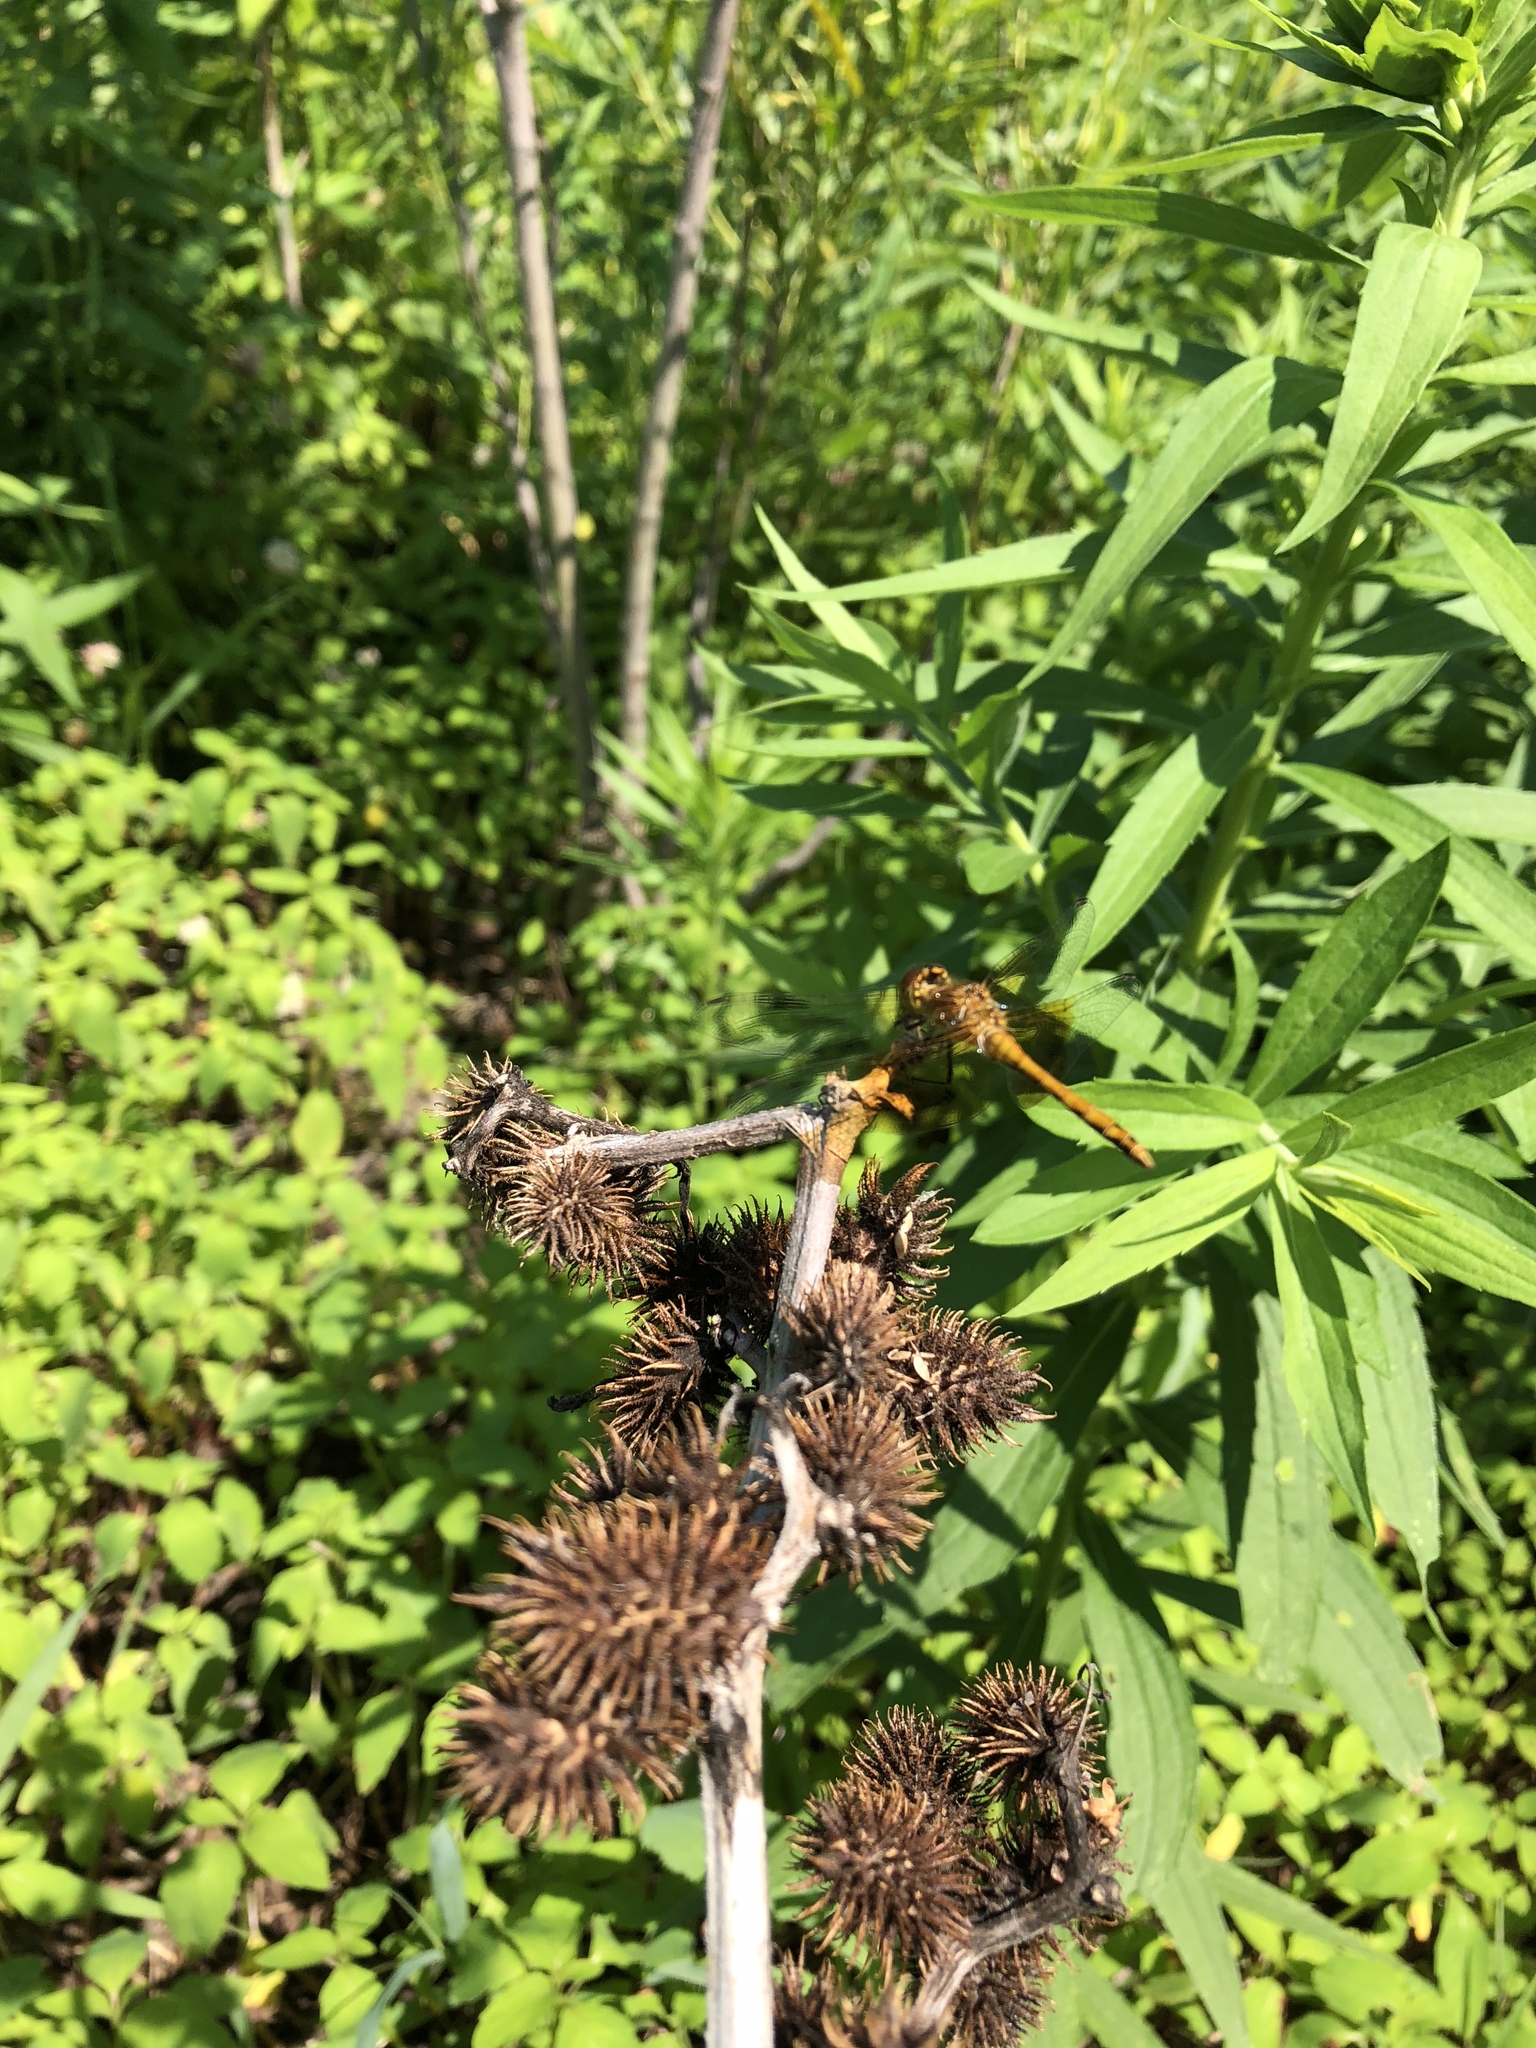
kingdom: Animalia
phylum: Arthropoda
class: Insecta
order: Odonata
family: Libellulidae
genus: Sympetrum
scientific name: Sympetrum semicinctum
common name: Band-winged meadowhawk
